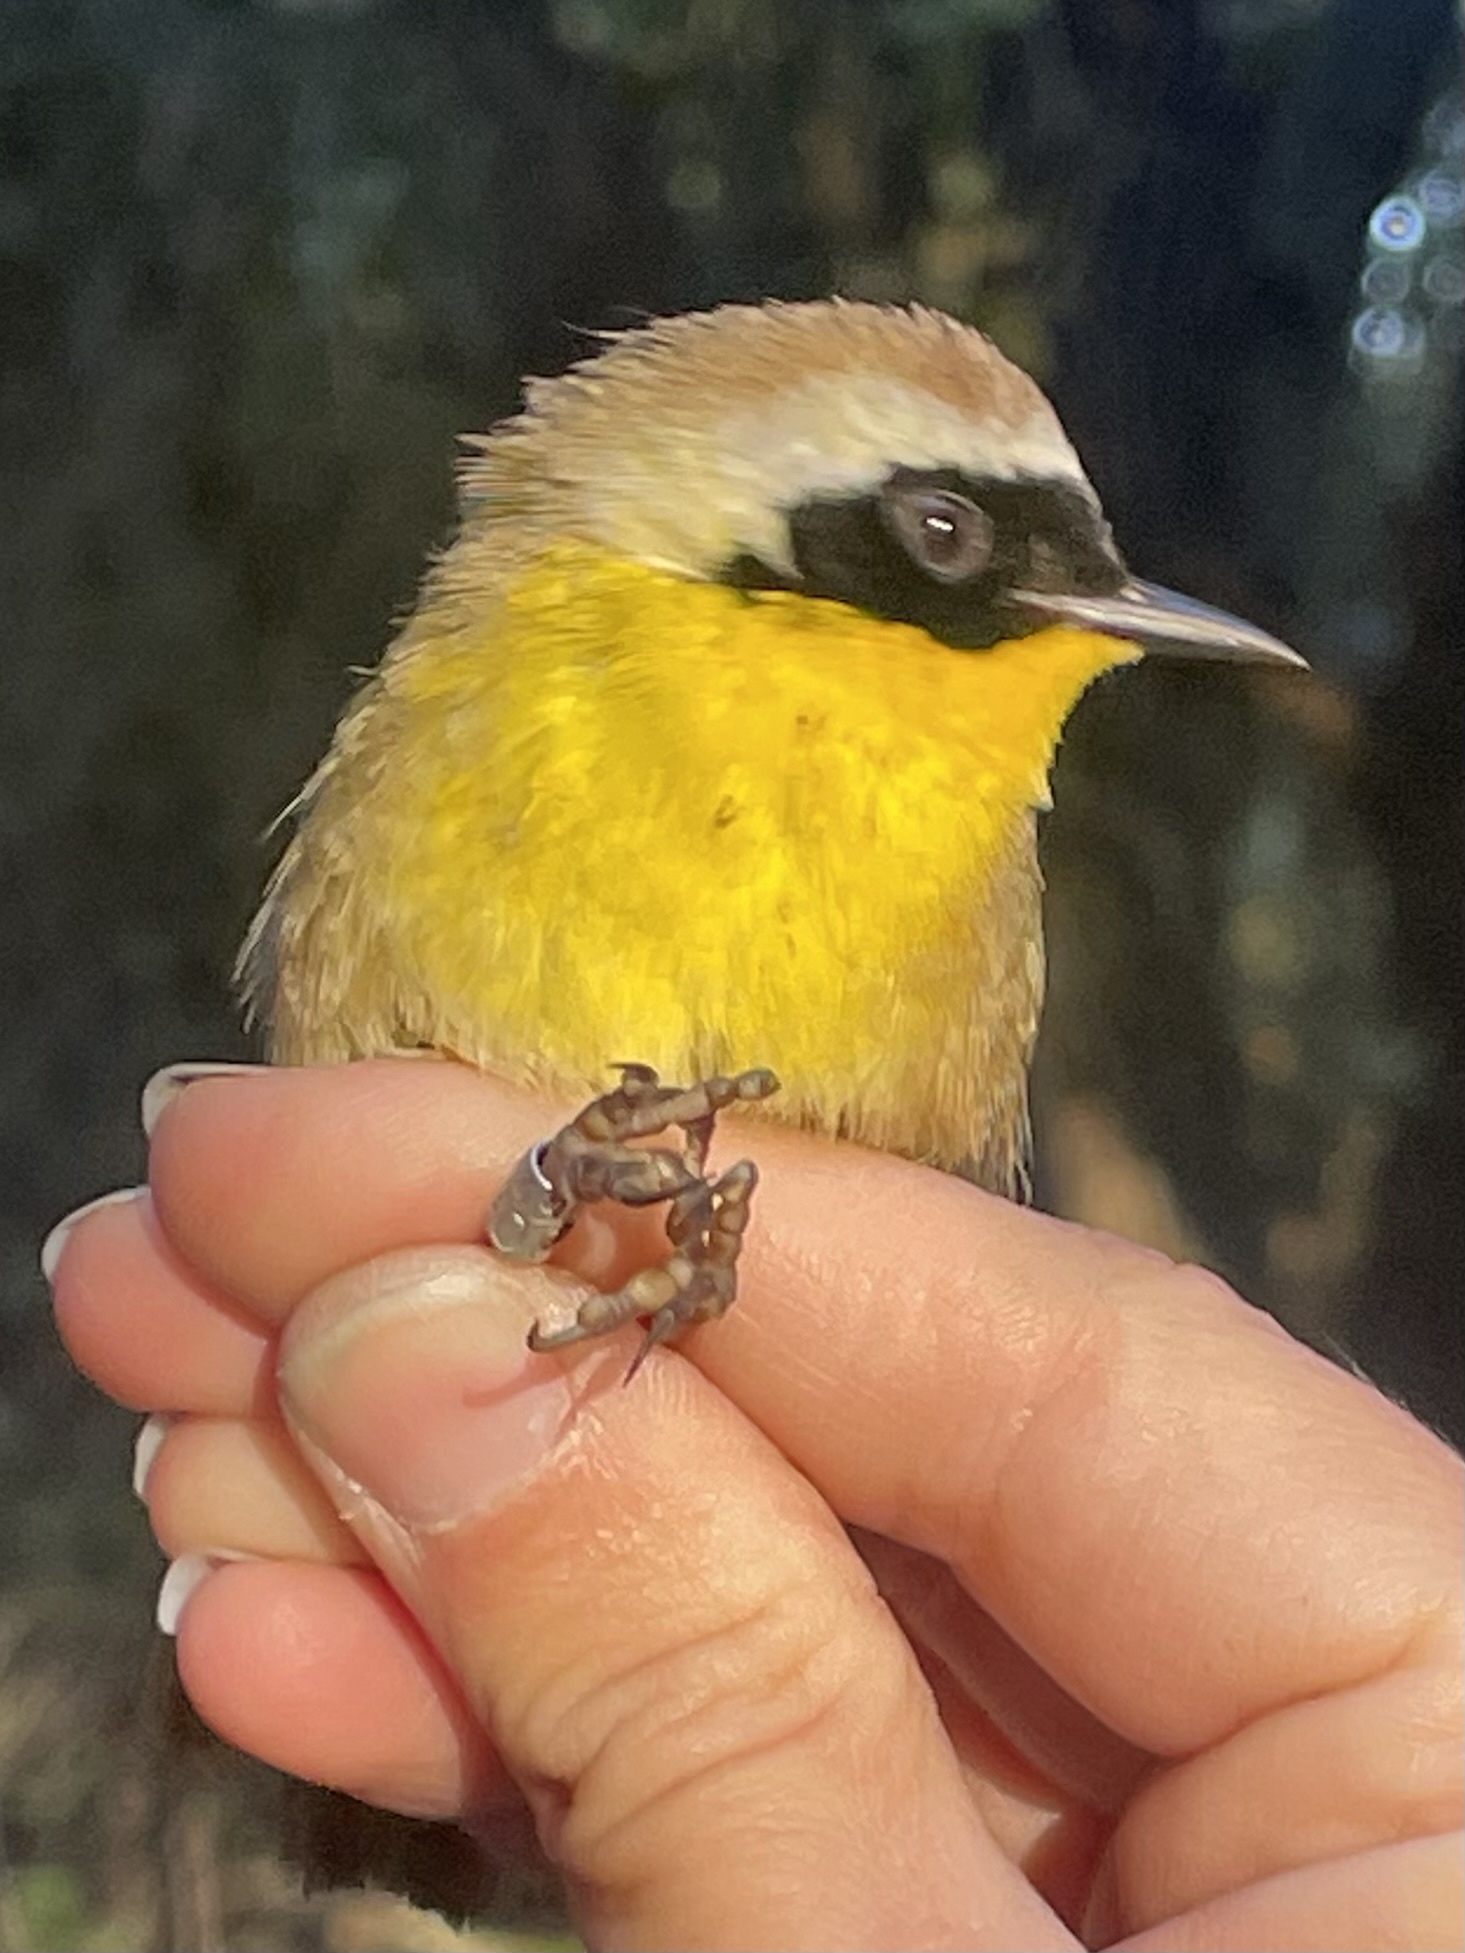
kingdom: Animalia
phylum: Chordata
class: Aves
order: Passeriformes
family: Parulidae
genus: Geothlypis
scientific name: Geothlypis trichas
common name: Common yellowthroat
